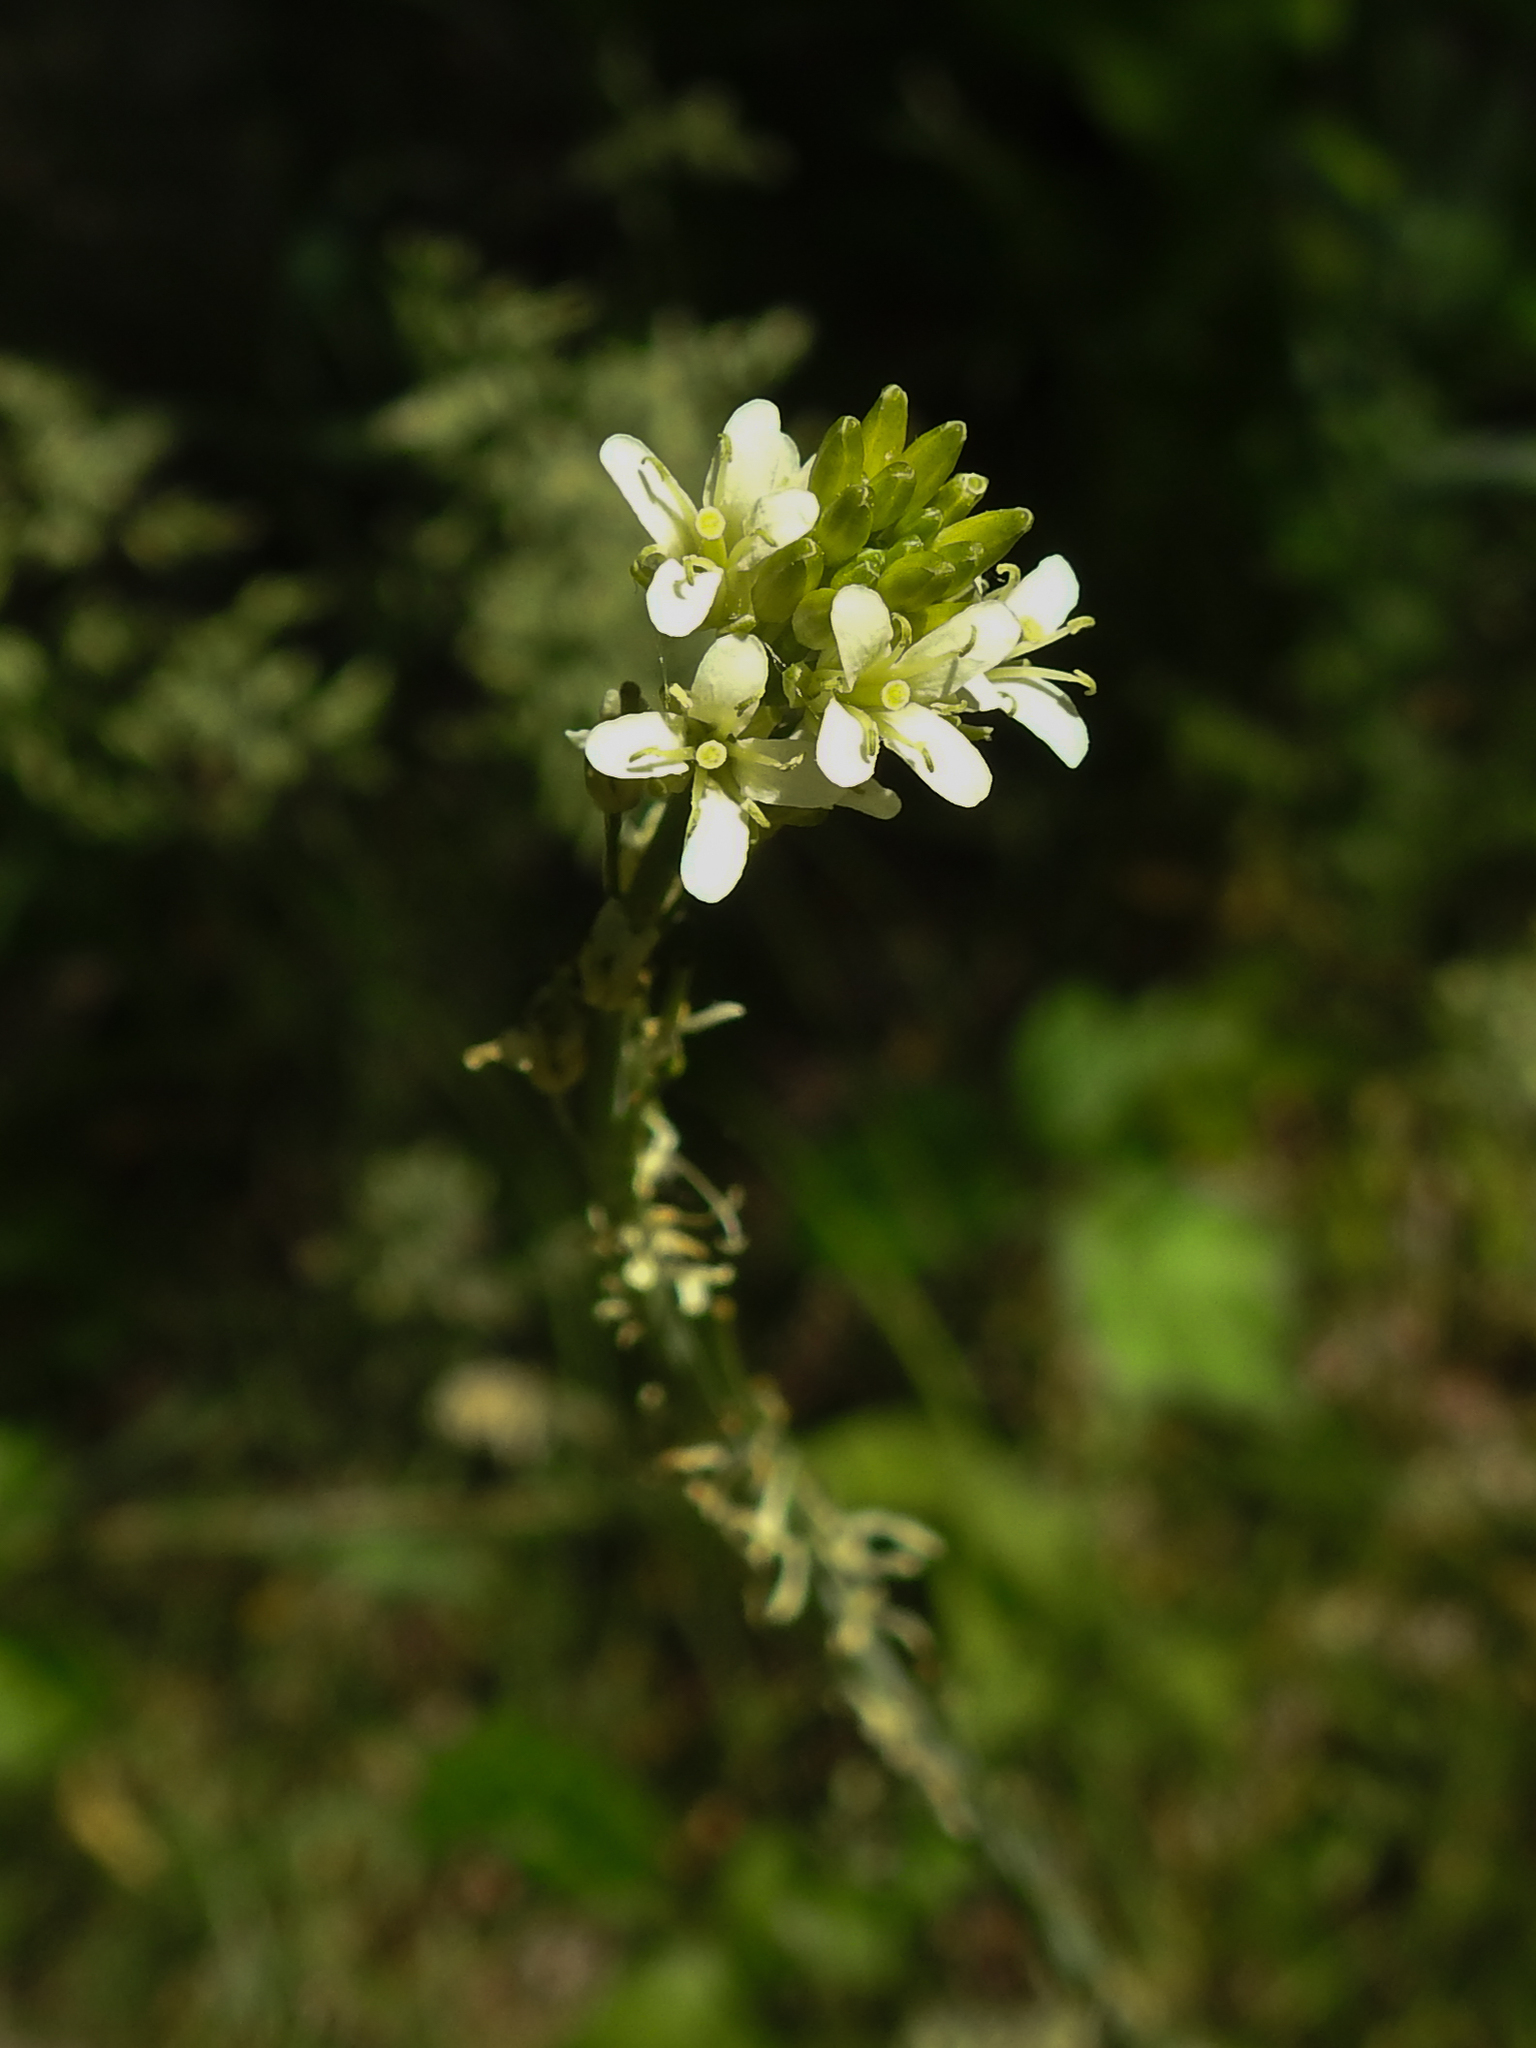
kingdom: Plantae
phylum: Tracheophyta
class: Magnoliopsida
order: Brassicales
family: Brassicaceae
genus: Turritis
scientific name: Turritis glabra
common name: Tower rockcress
